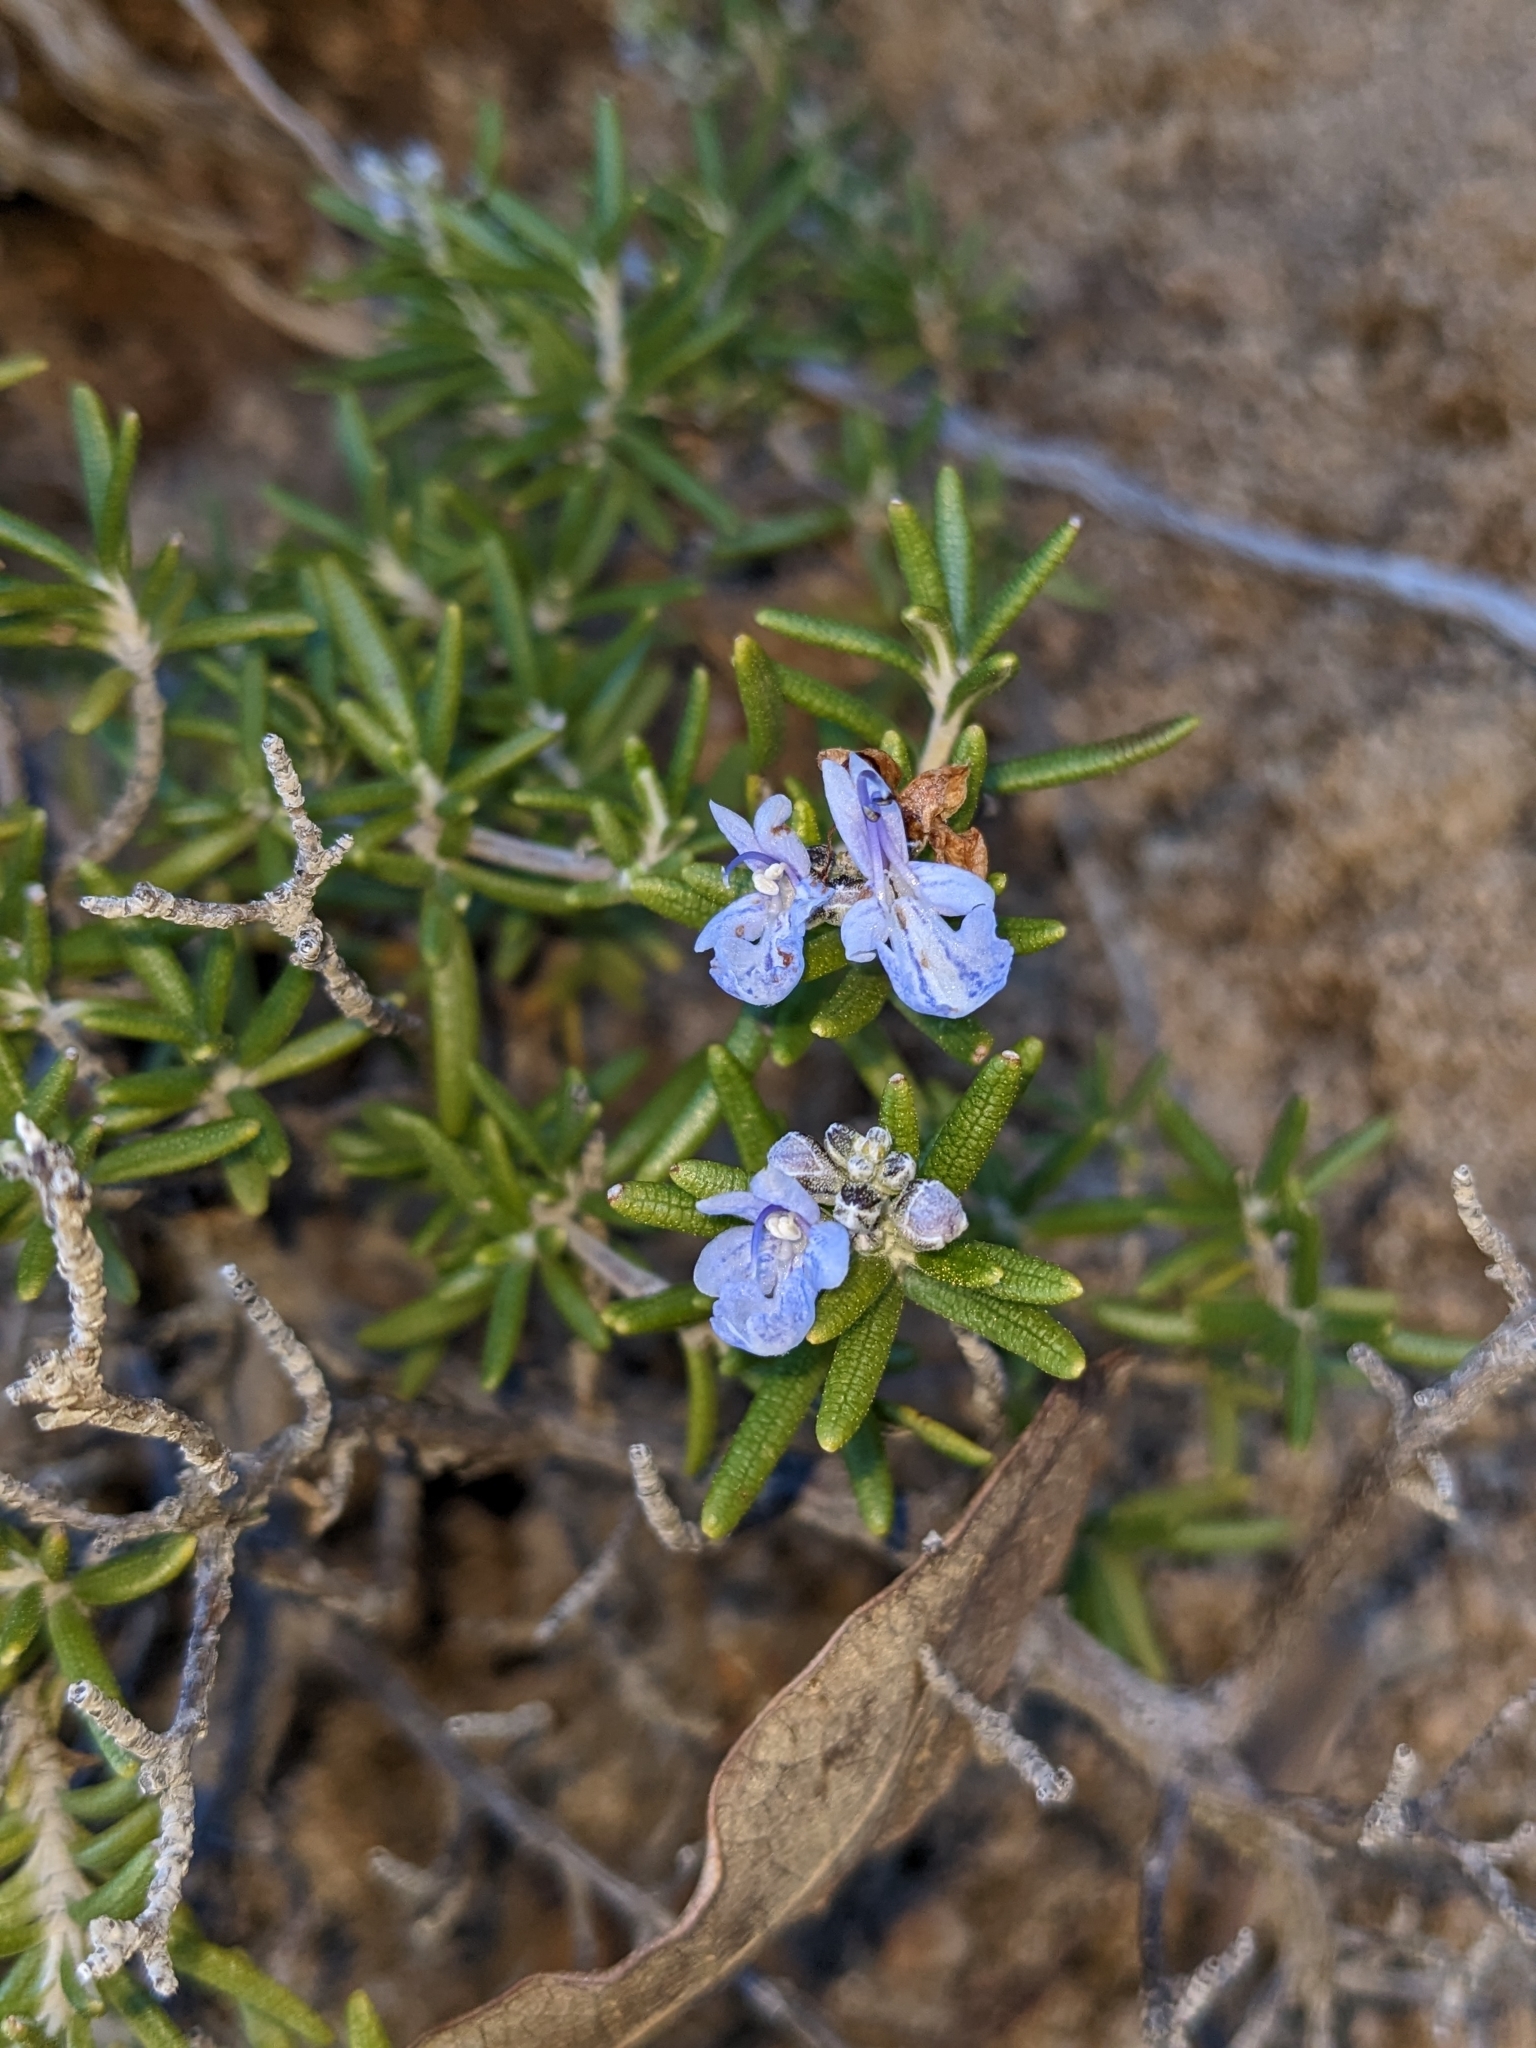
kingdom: Plantae
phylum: Tracheophyta
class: Magnoliopsida
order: Lamiales
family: Lamiaceae
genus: Salvia
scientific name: Salvia rosmarinus
